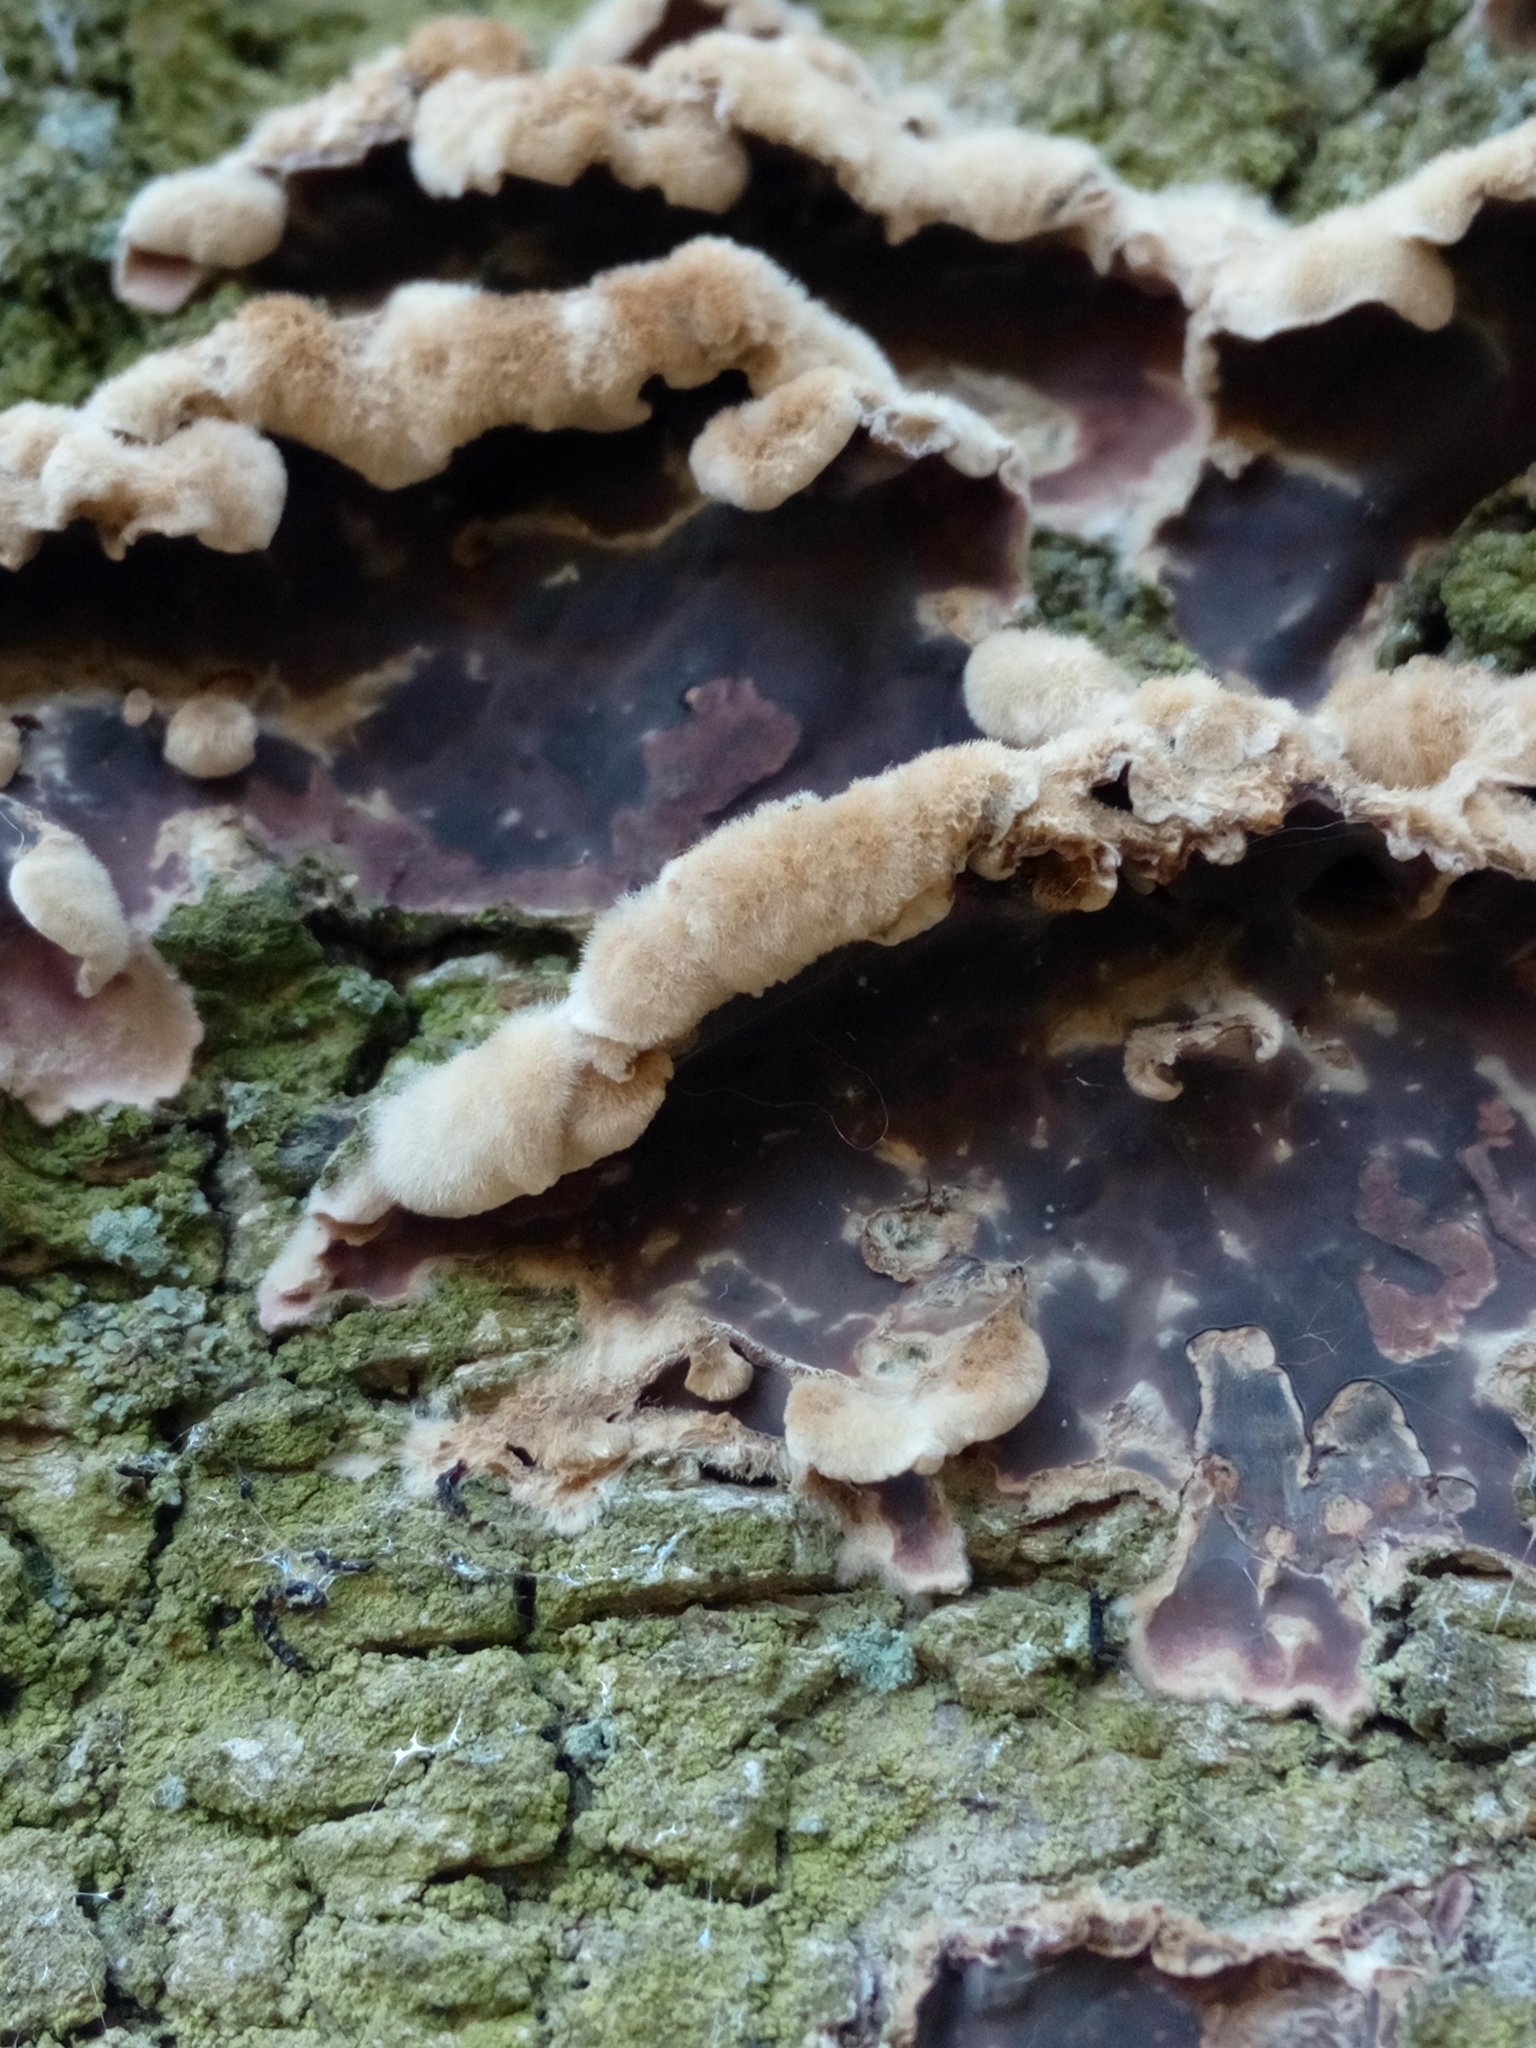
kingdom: Fungi
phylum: Basidiomycota
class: Agaricomycetes
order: Agaricales
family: Cyphellaceae
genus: Chondrostereum
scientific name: Chondrostereum purpureum
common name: Silver leaf disease
